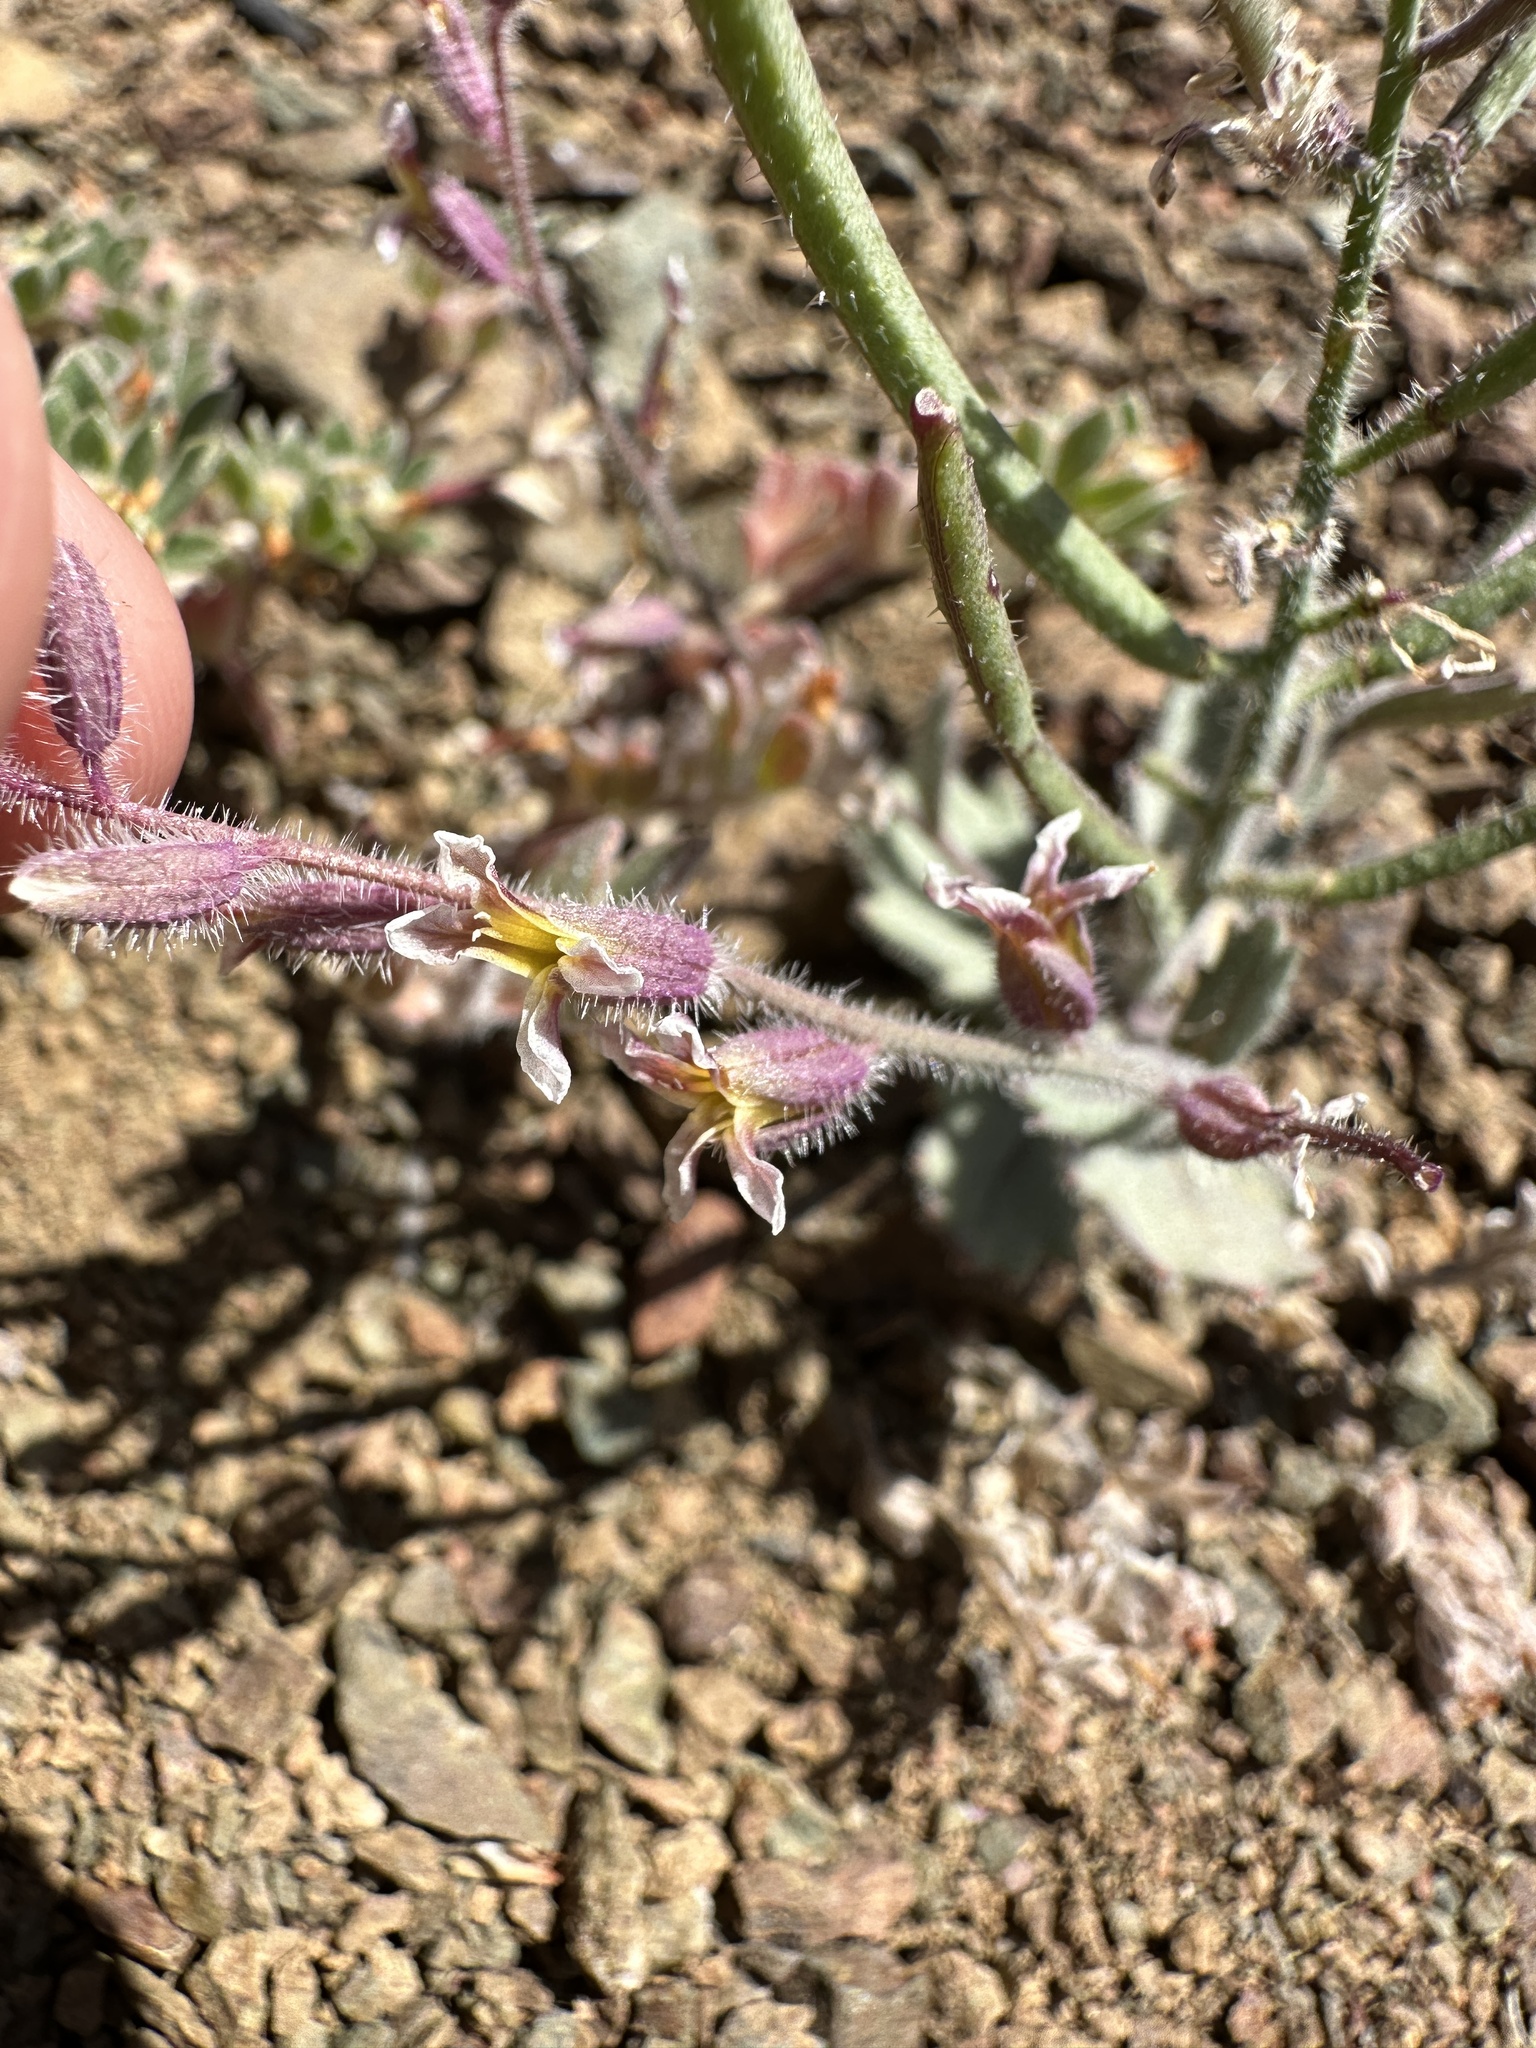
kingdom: Plantae
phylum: Tracheophyta
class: Magnoliopsida
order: Brassicales
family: Brassicaceae
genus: Streptanthus
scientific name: Streptanthus hispidus
